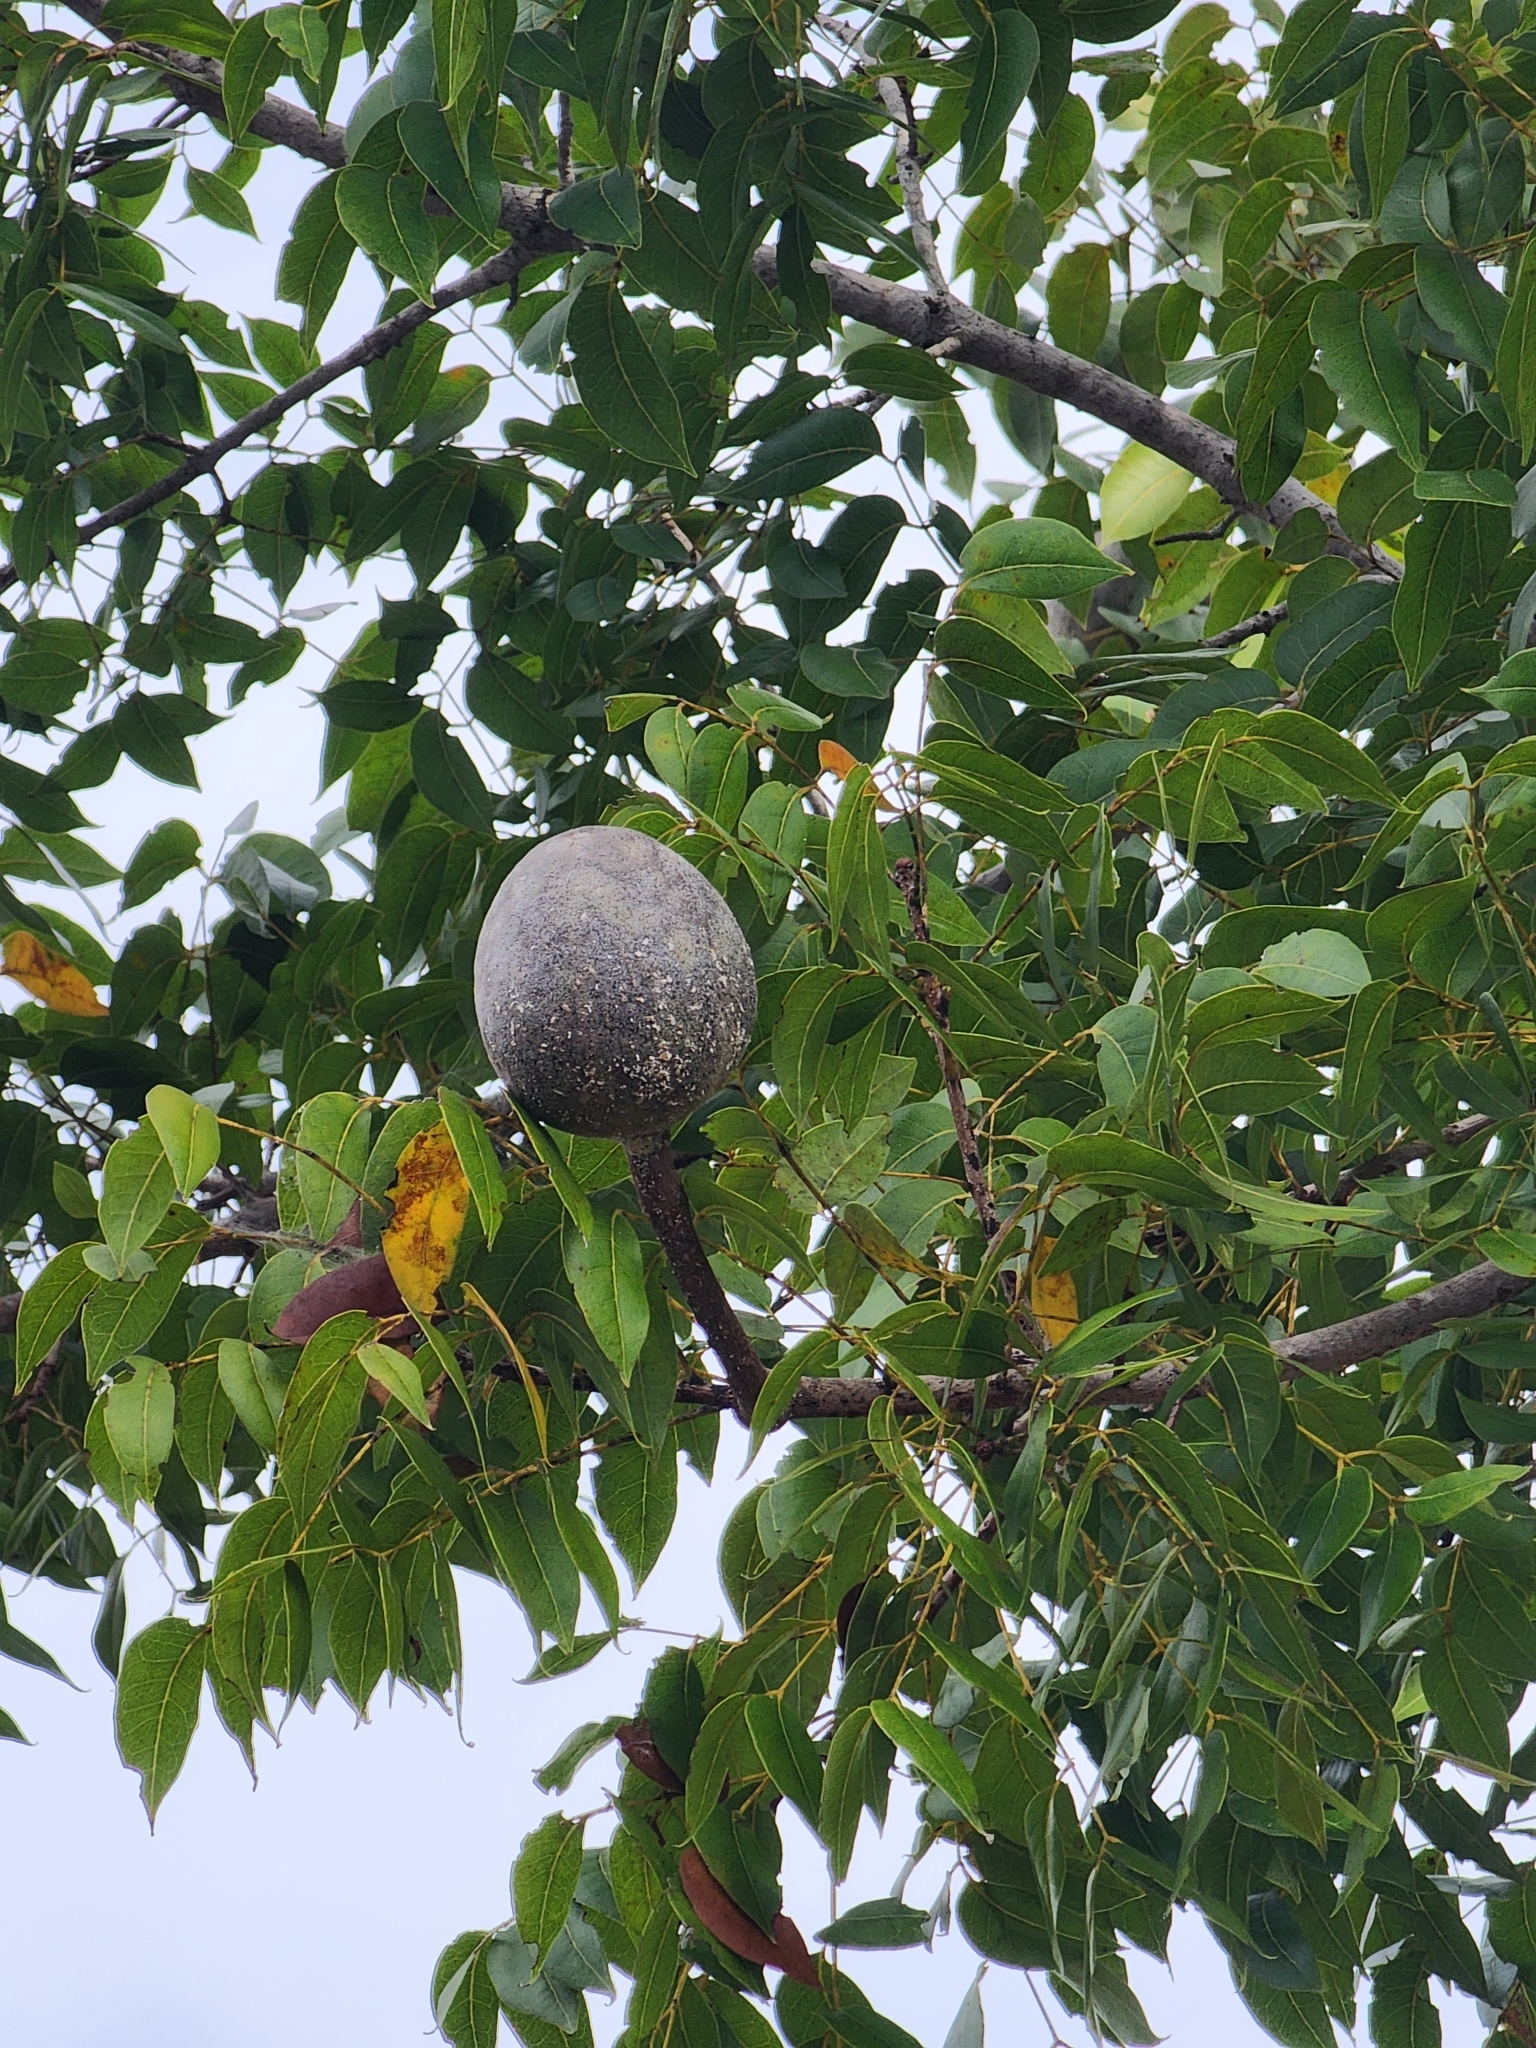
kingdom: Plantae
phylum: Tracheophyta
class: Magnoliopsida
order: Sapindales
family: Meliaceae
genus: Swietenia
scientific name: Swietenia mahagoni
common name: West indian mahogany
